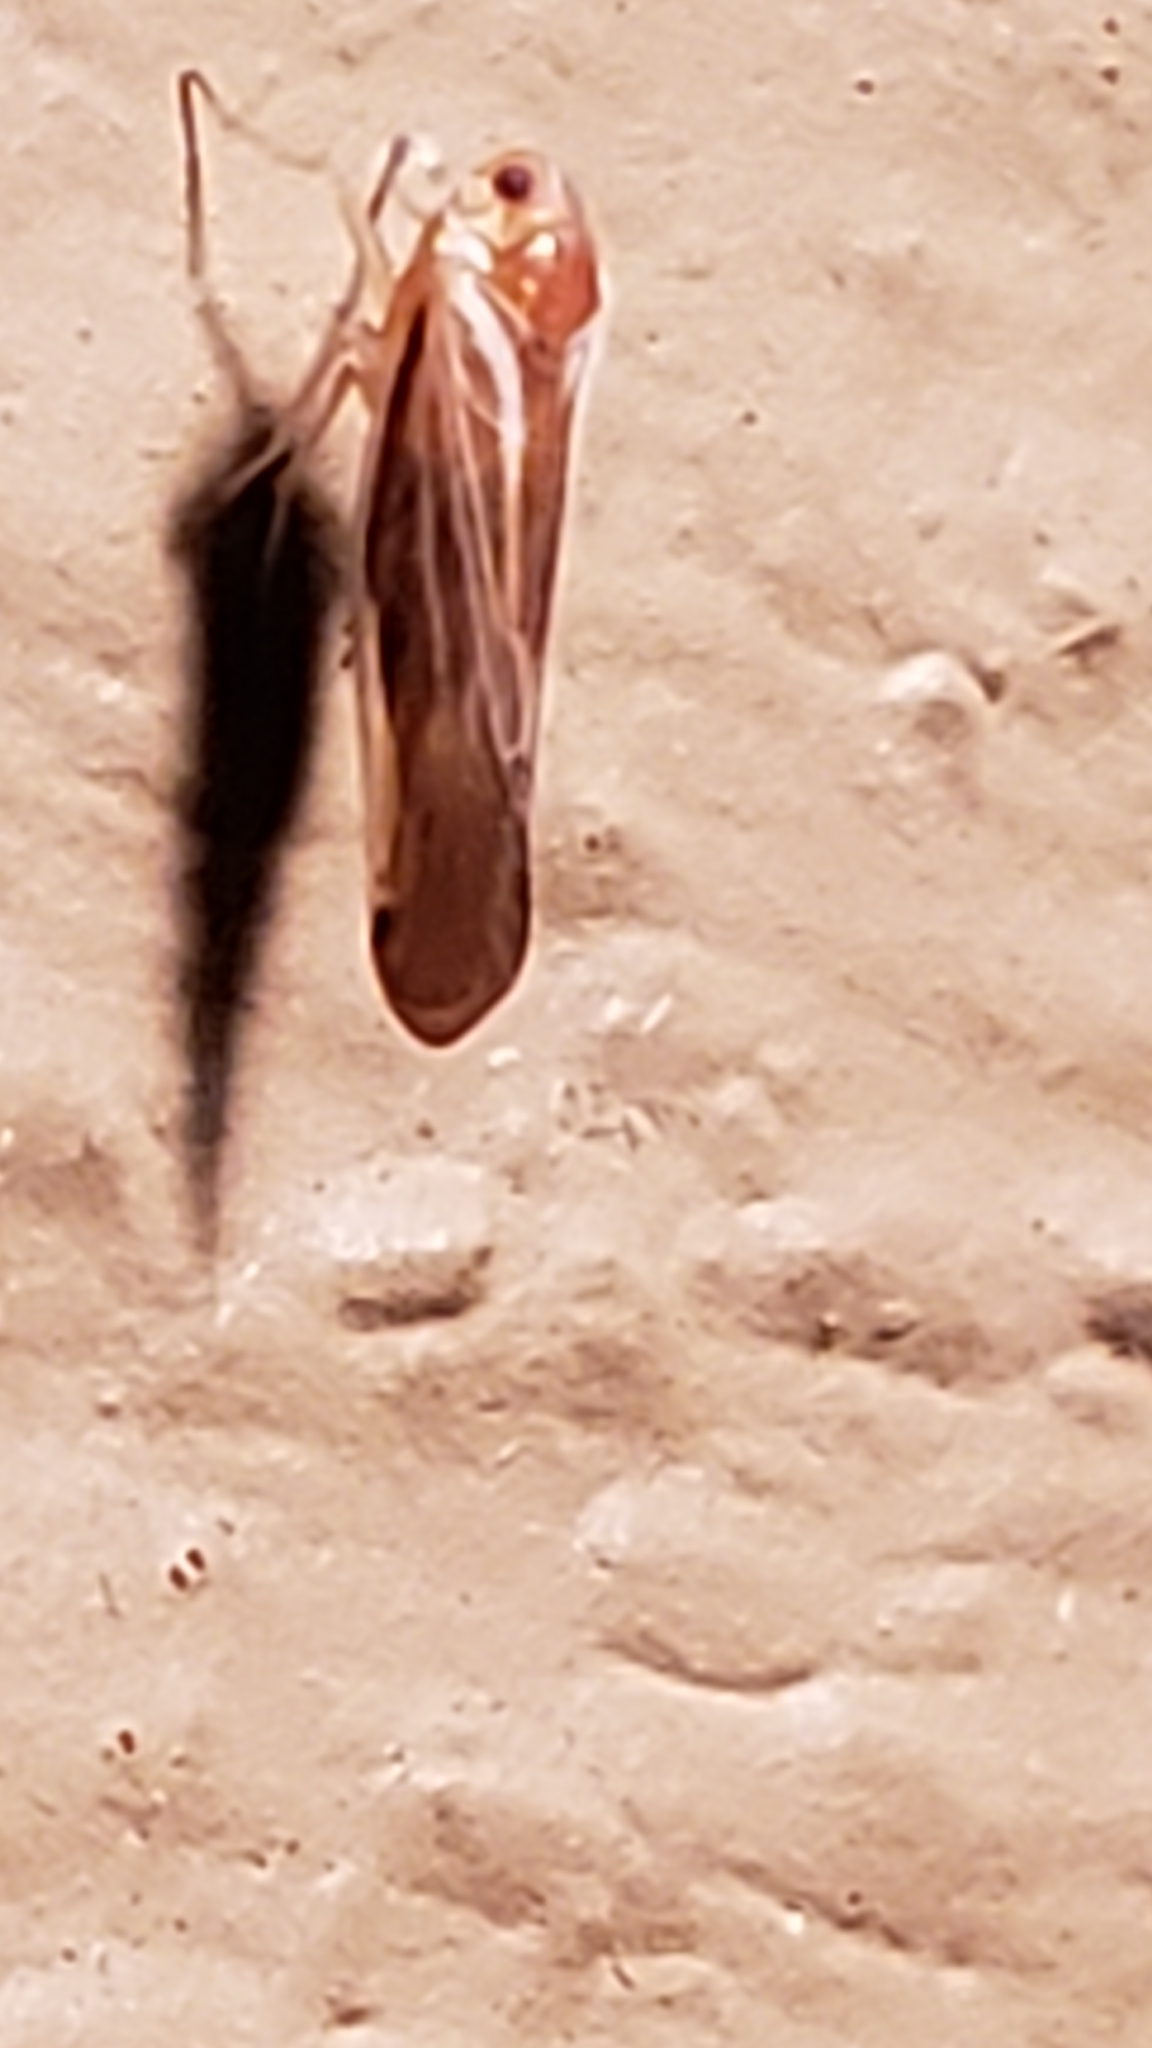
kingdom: Animalia
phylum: Arthropoda
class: Insecta
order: Hemiptera
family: Derbidae
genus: Omolicna
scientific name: Omolicna uhleri
